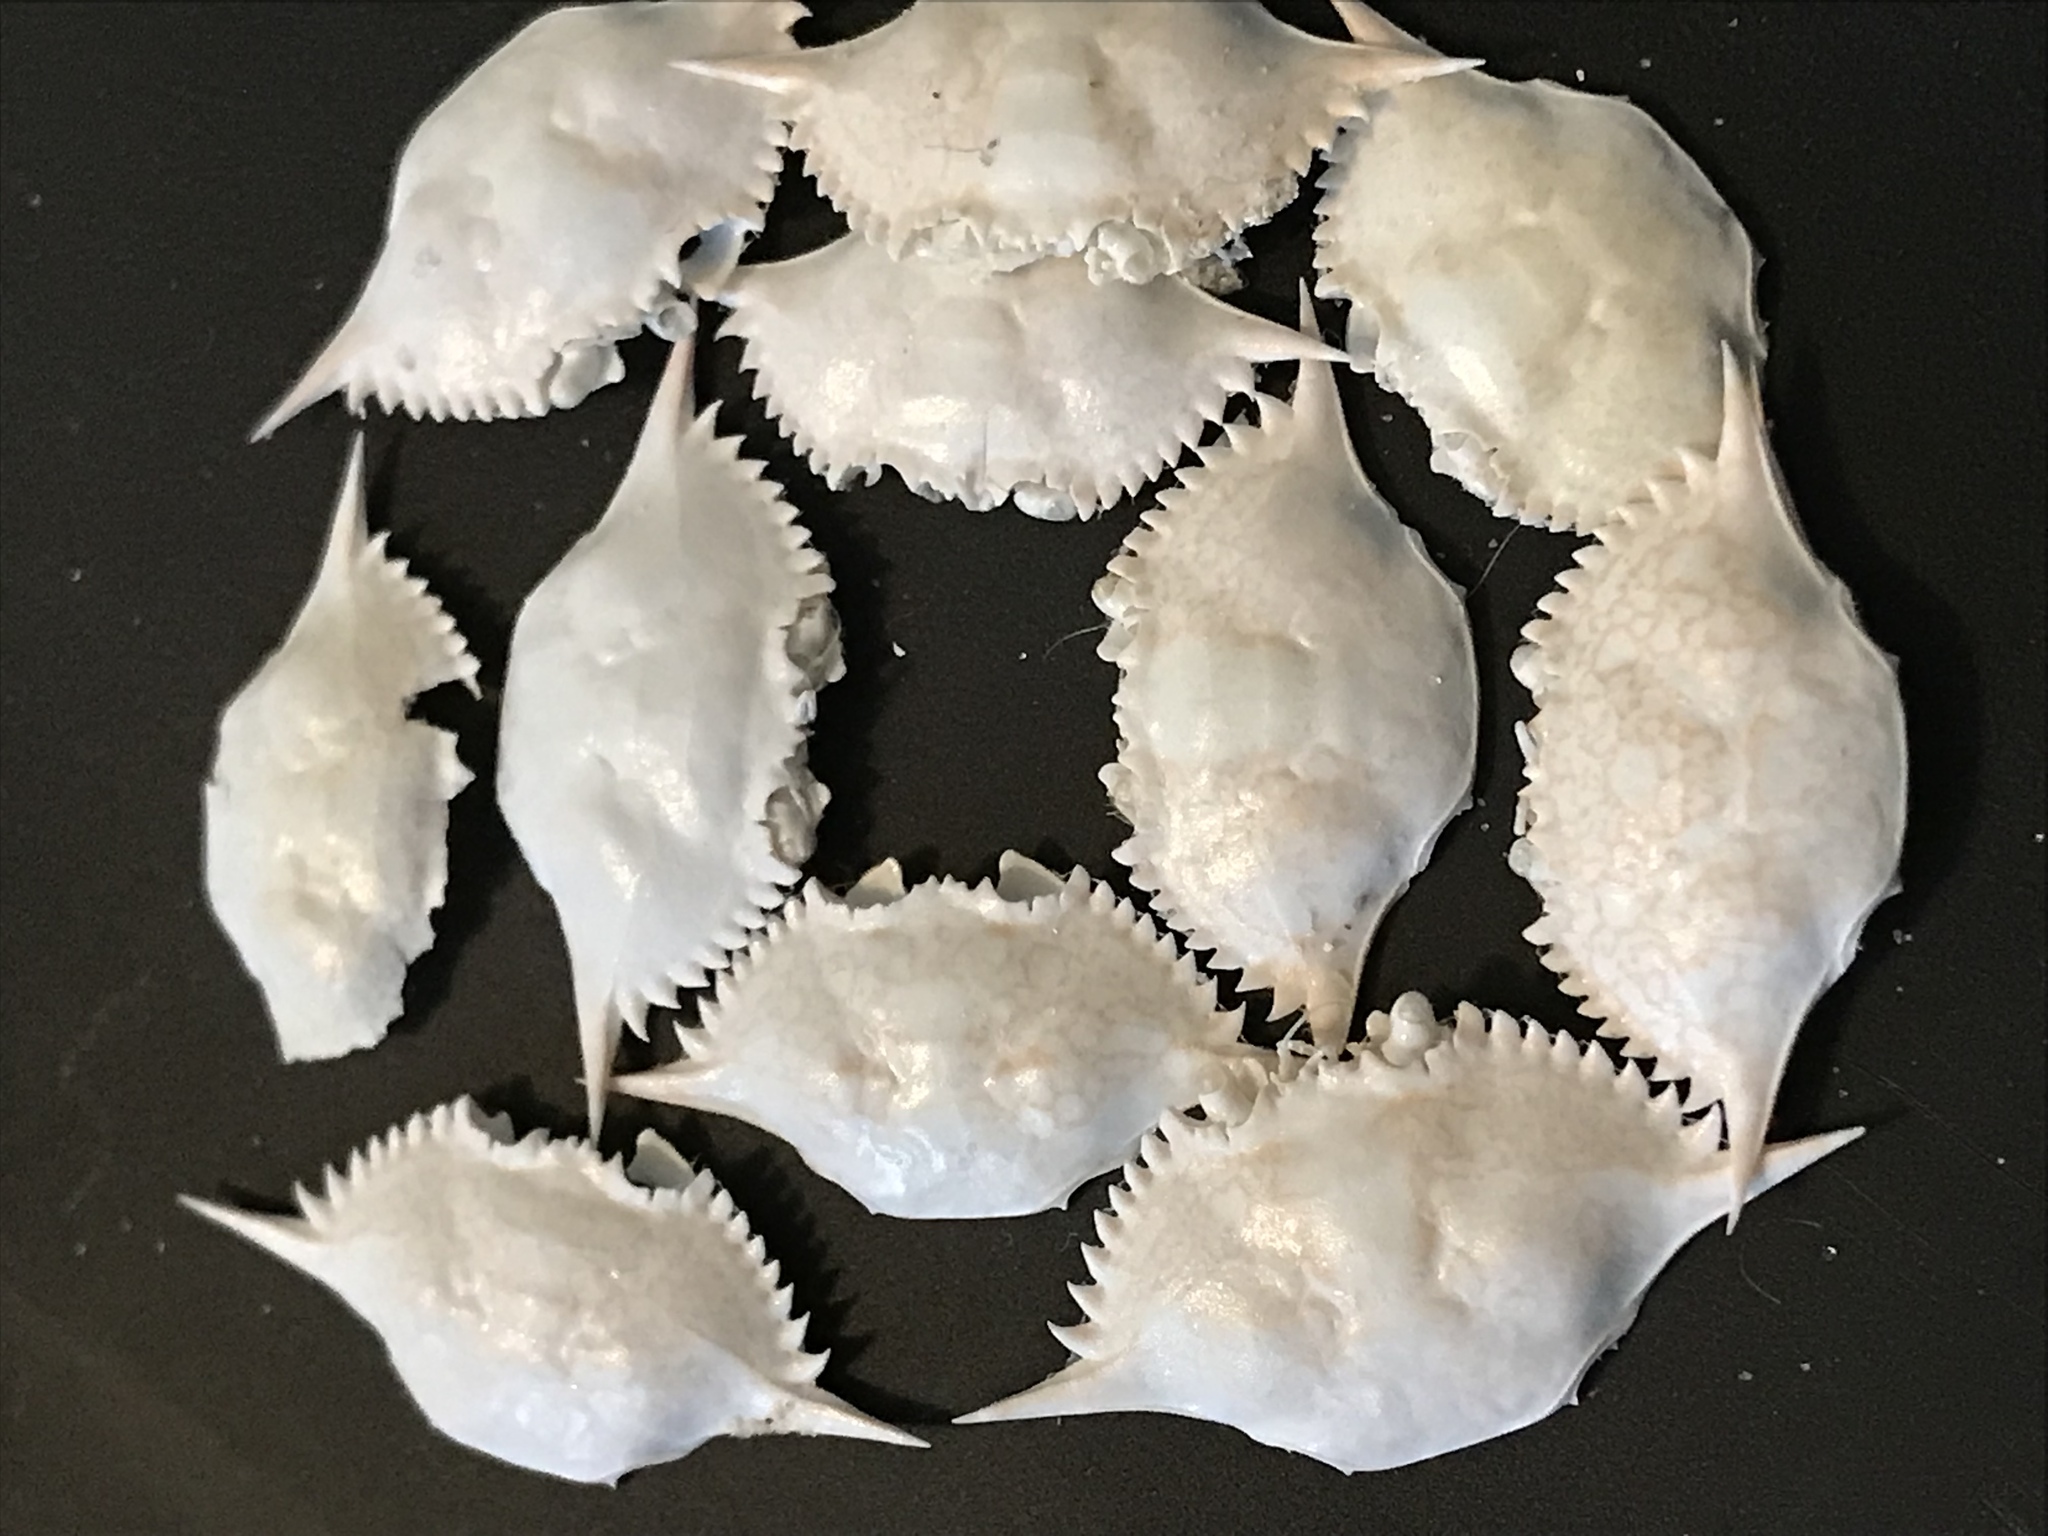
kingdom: Animalia
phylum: Arthropoda
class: Malacostraca
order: Decapoda
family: Portunidae
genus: Arenaeus
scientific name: Arenaeus cribrarius
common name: Speckled crab
